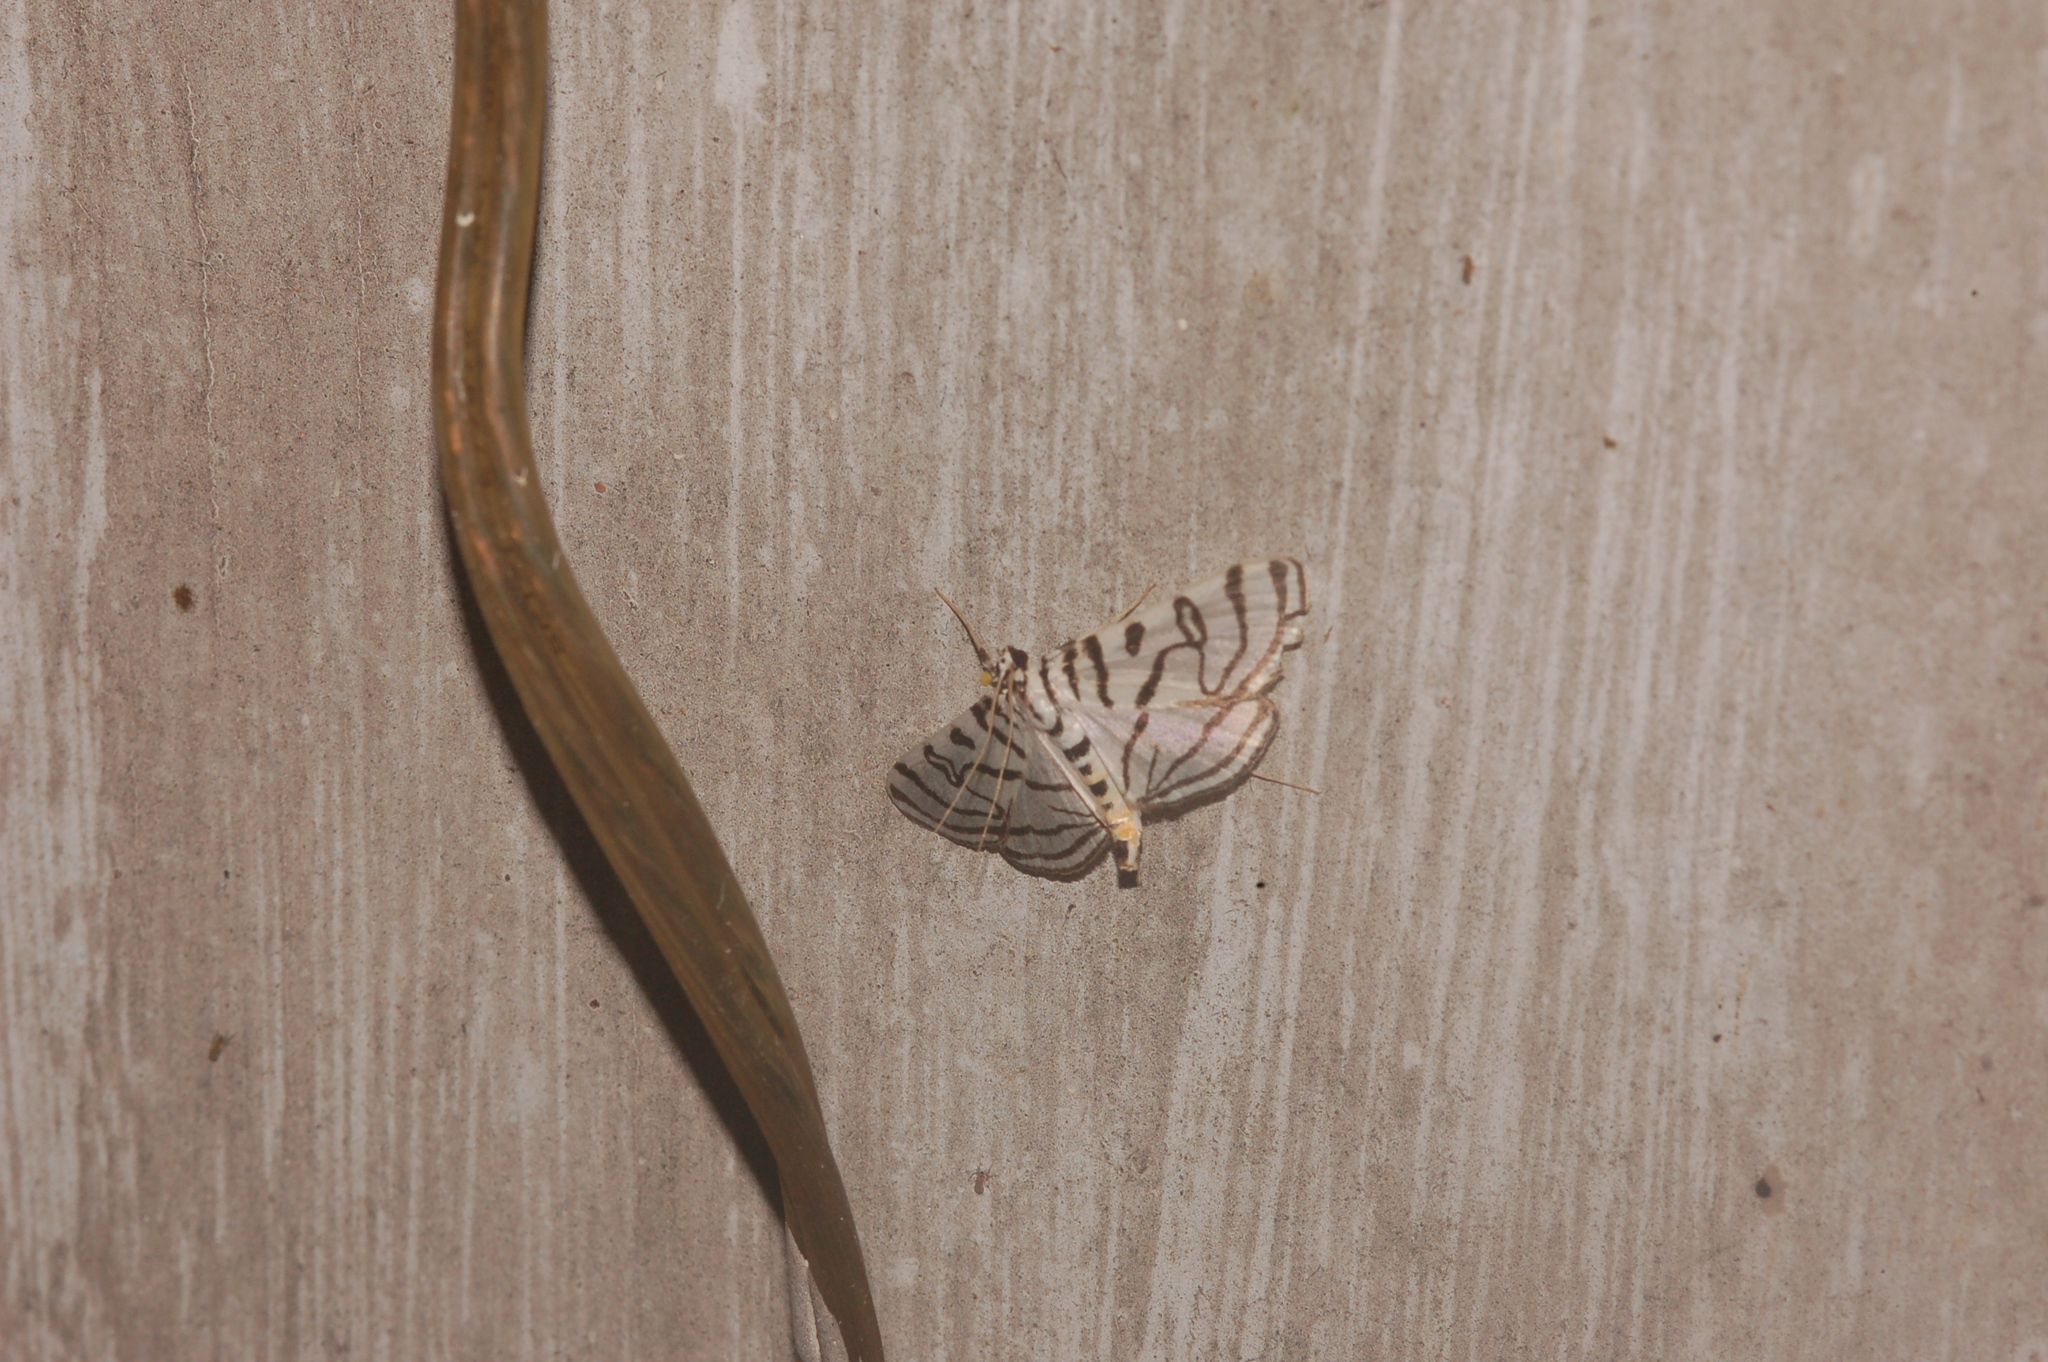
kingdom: Animalia
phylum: Arthropoda
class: Insecta
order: Lepidoptera
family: Crambidae
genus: Conchylodes
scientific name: Conchylodes ovulalis
